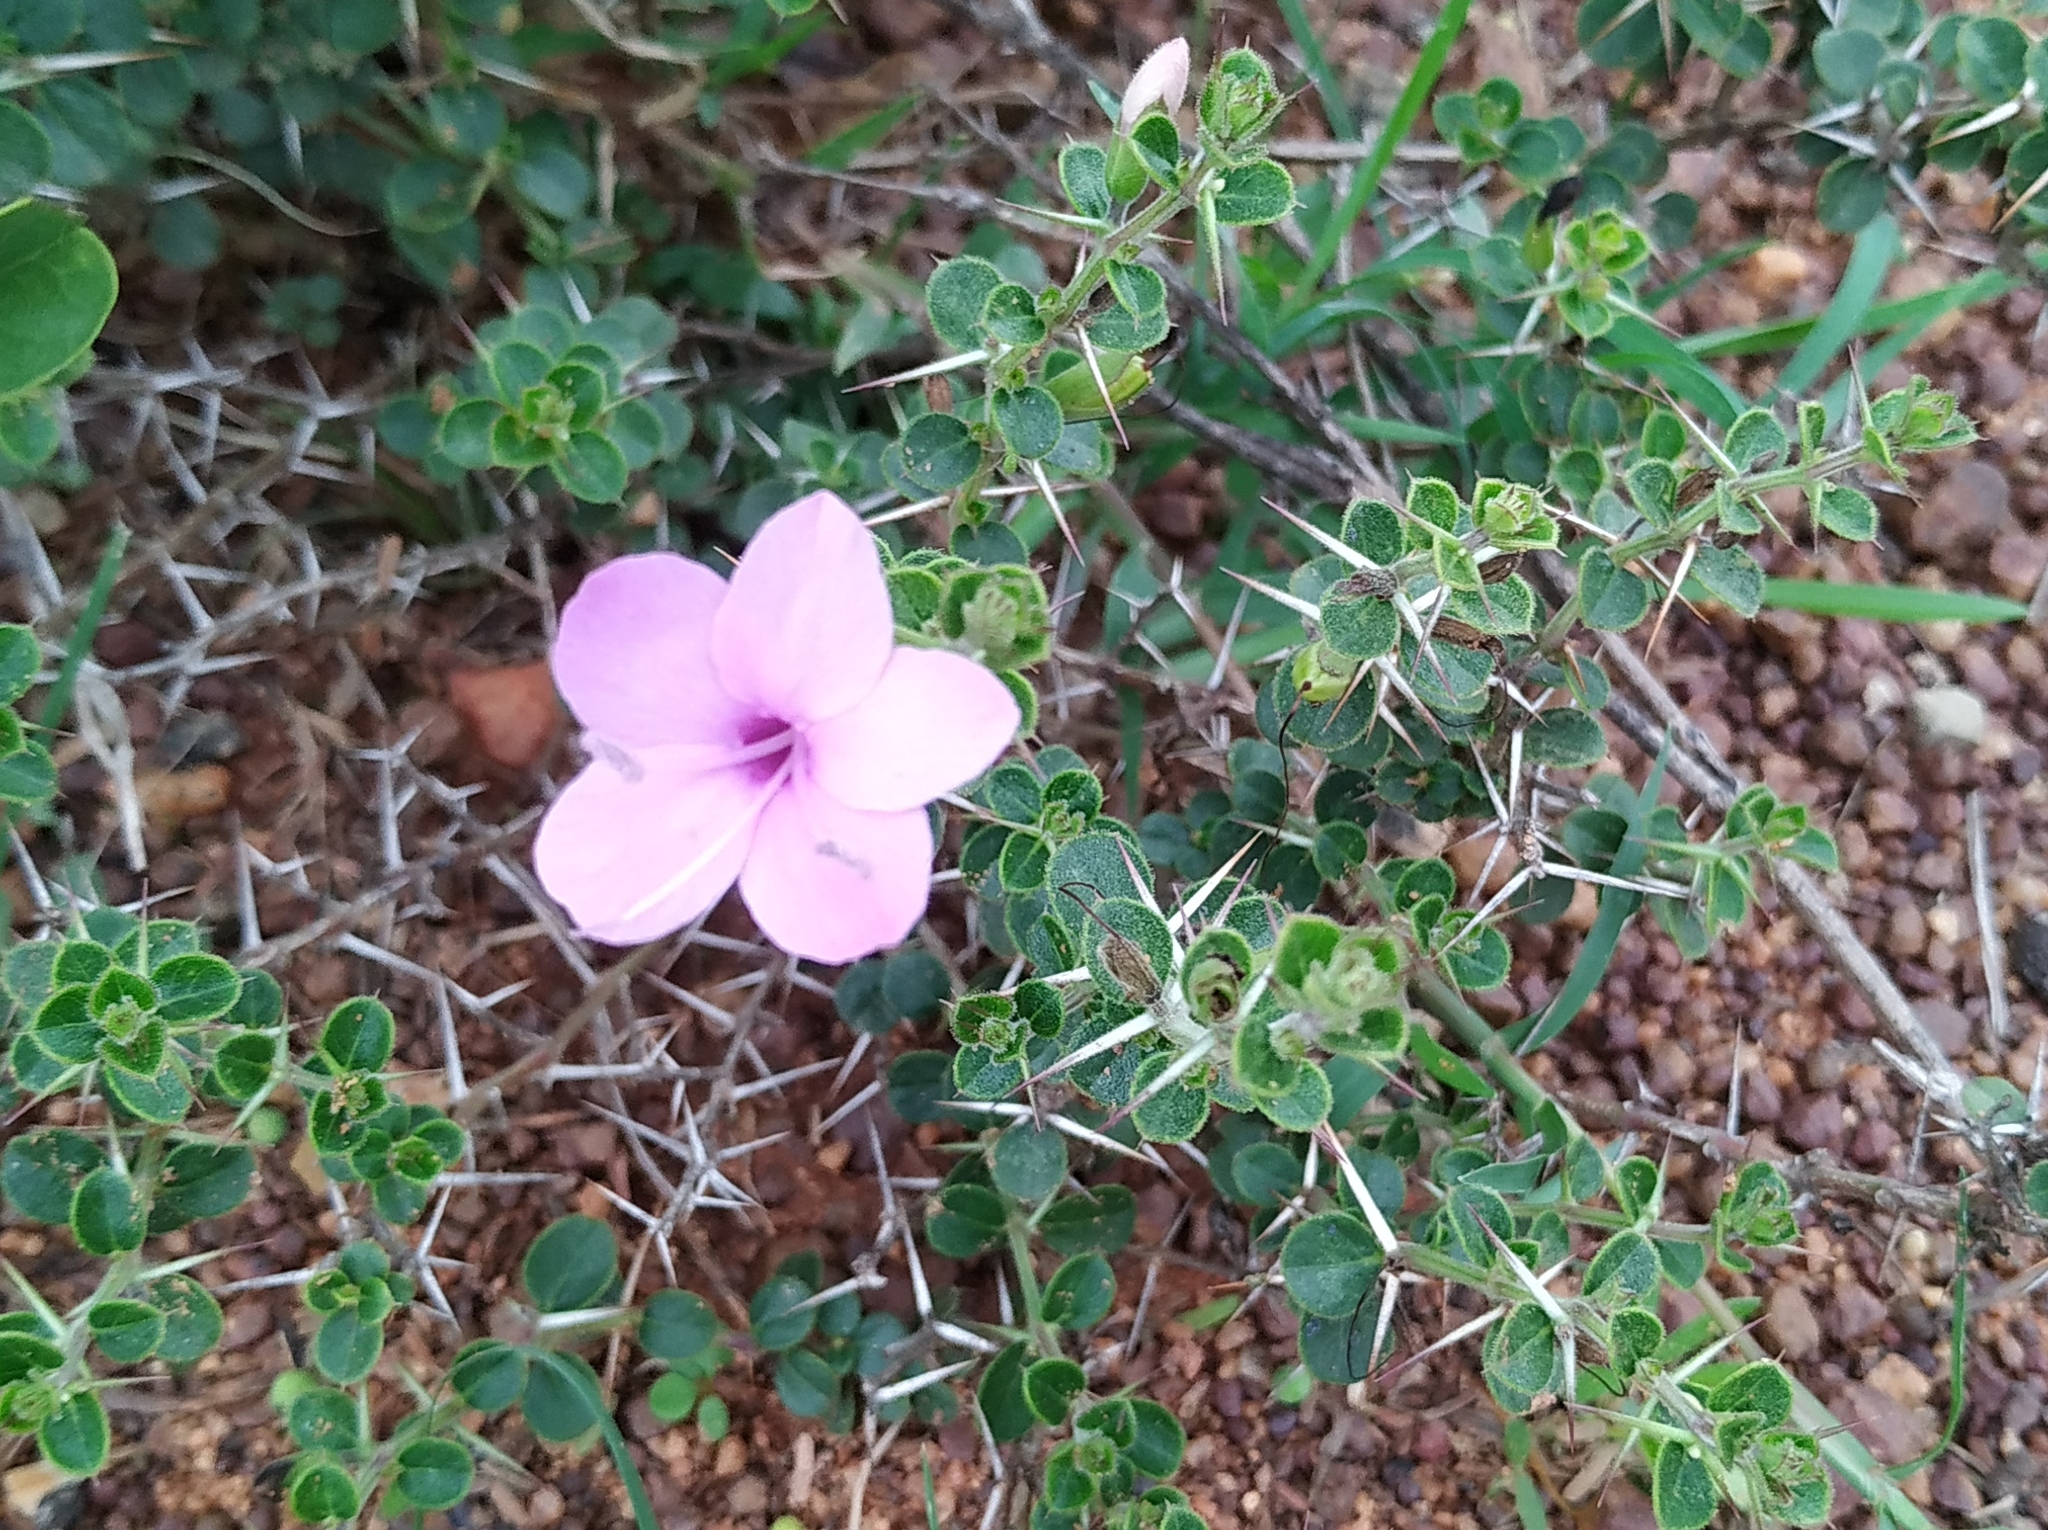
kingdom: Plantae
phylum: Tracheophyta
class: Magnoliopsida
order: Lamiales
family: Acanthaceae
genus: Barleria
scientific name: Barleria mysorensis
